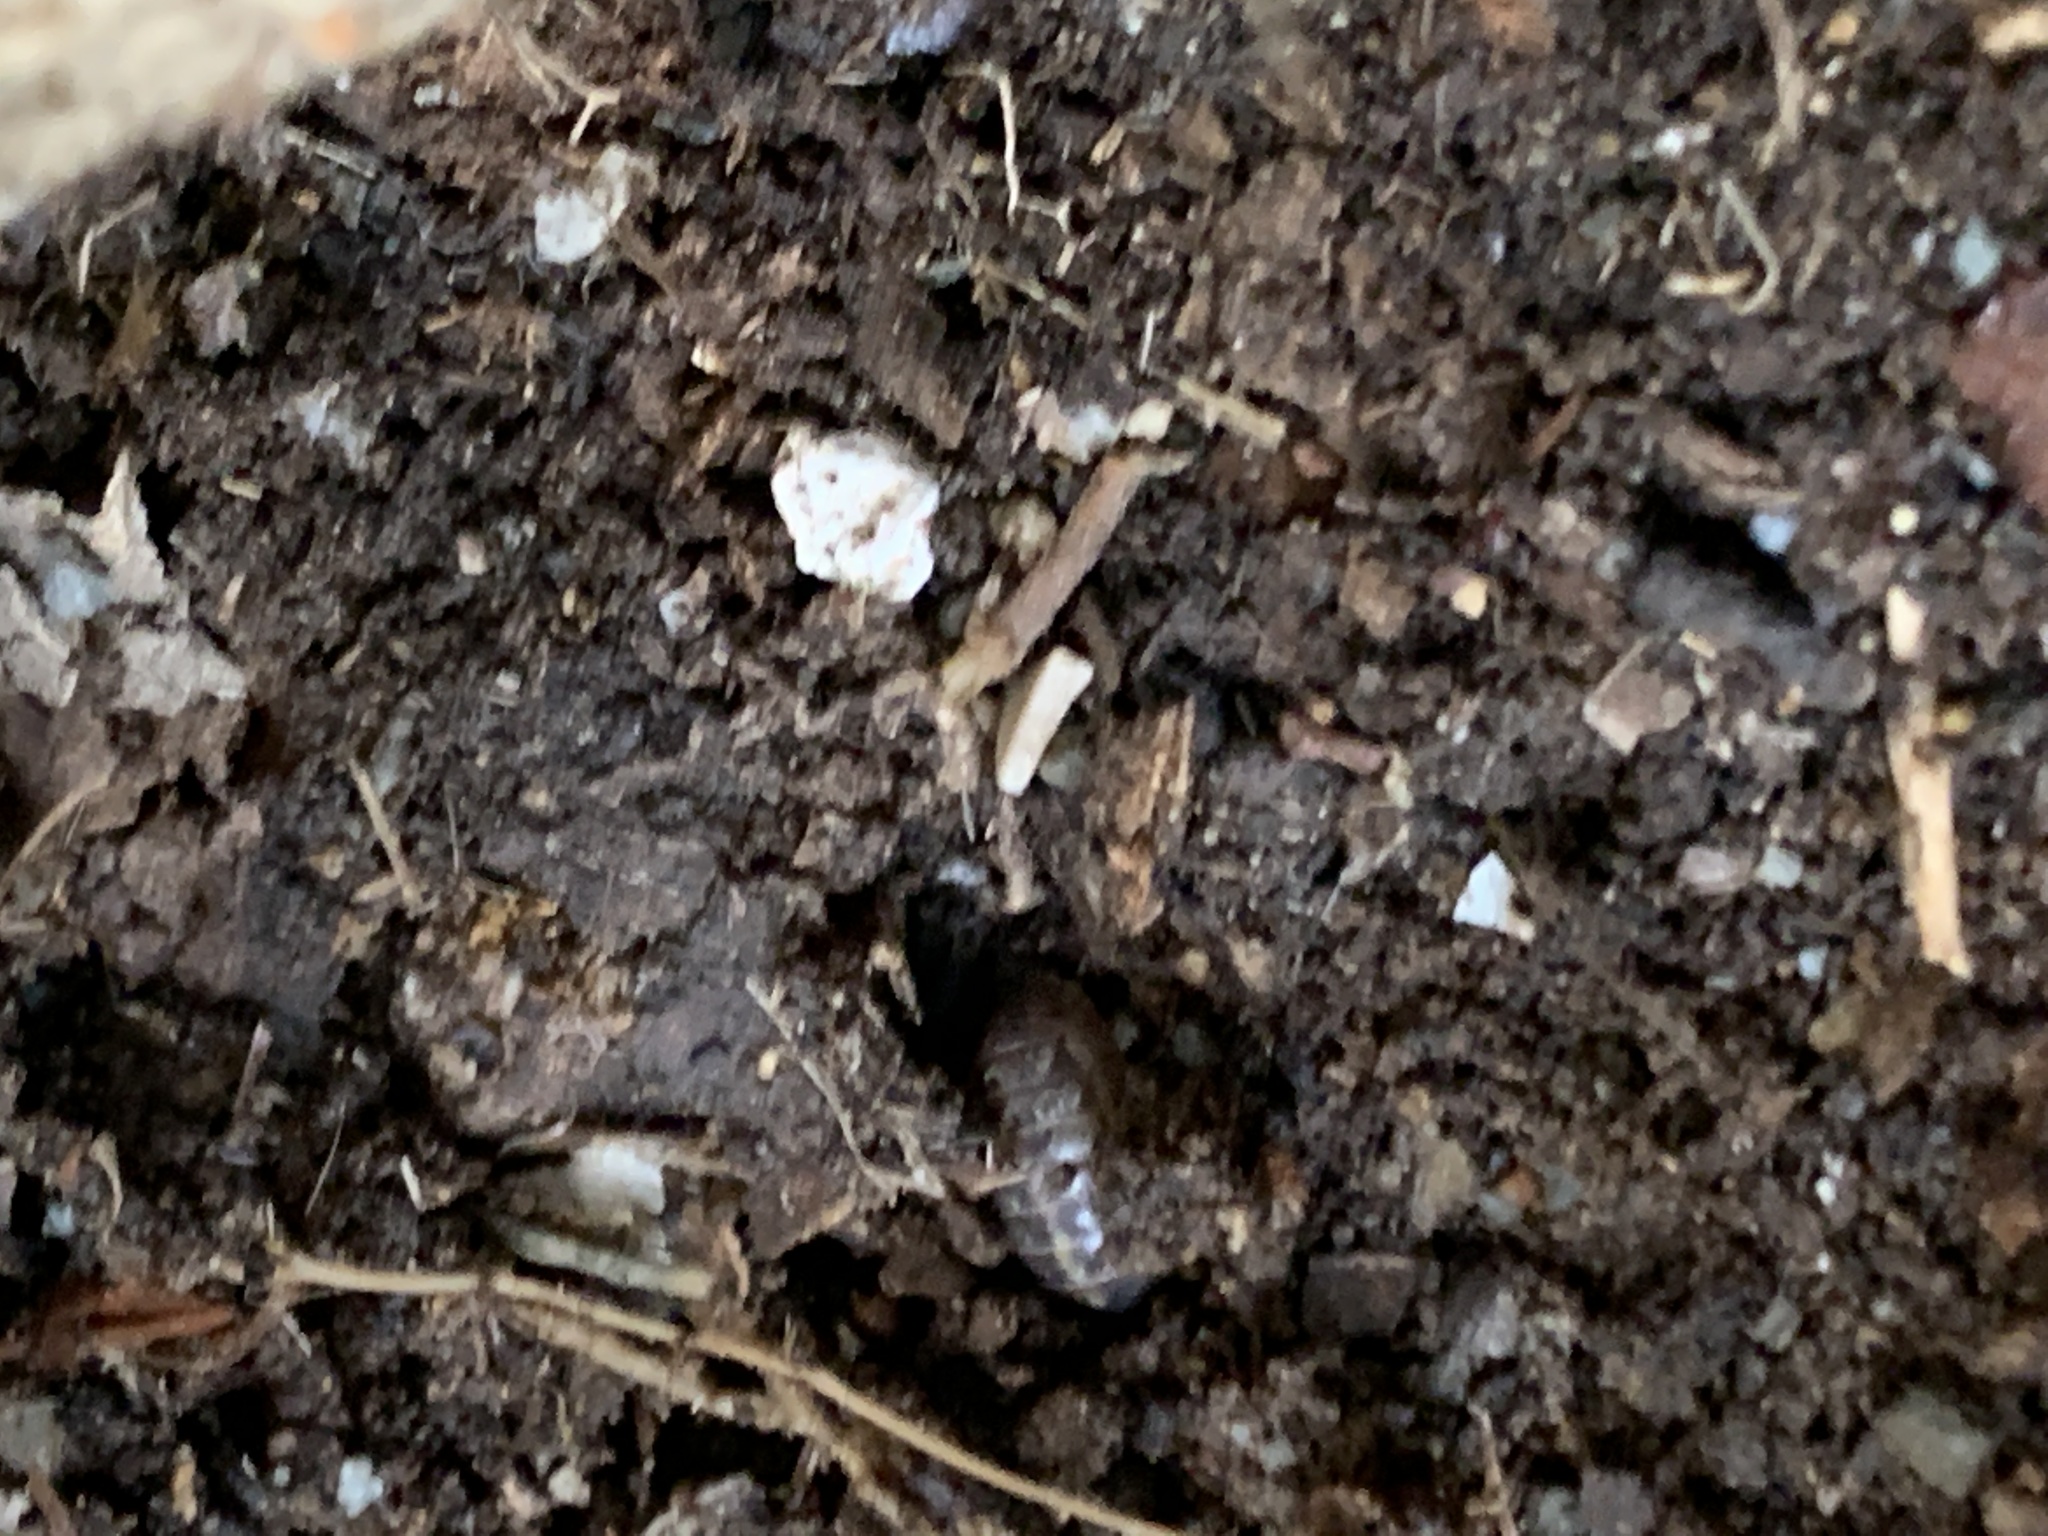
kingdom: Animalia
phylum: Arthropoda
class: Malacostraca
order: Isopoda
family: Armadillidiidae
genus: Armadillidium
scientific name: Armadillidium vulgare
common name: Common pill woodlouse
